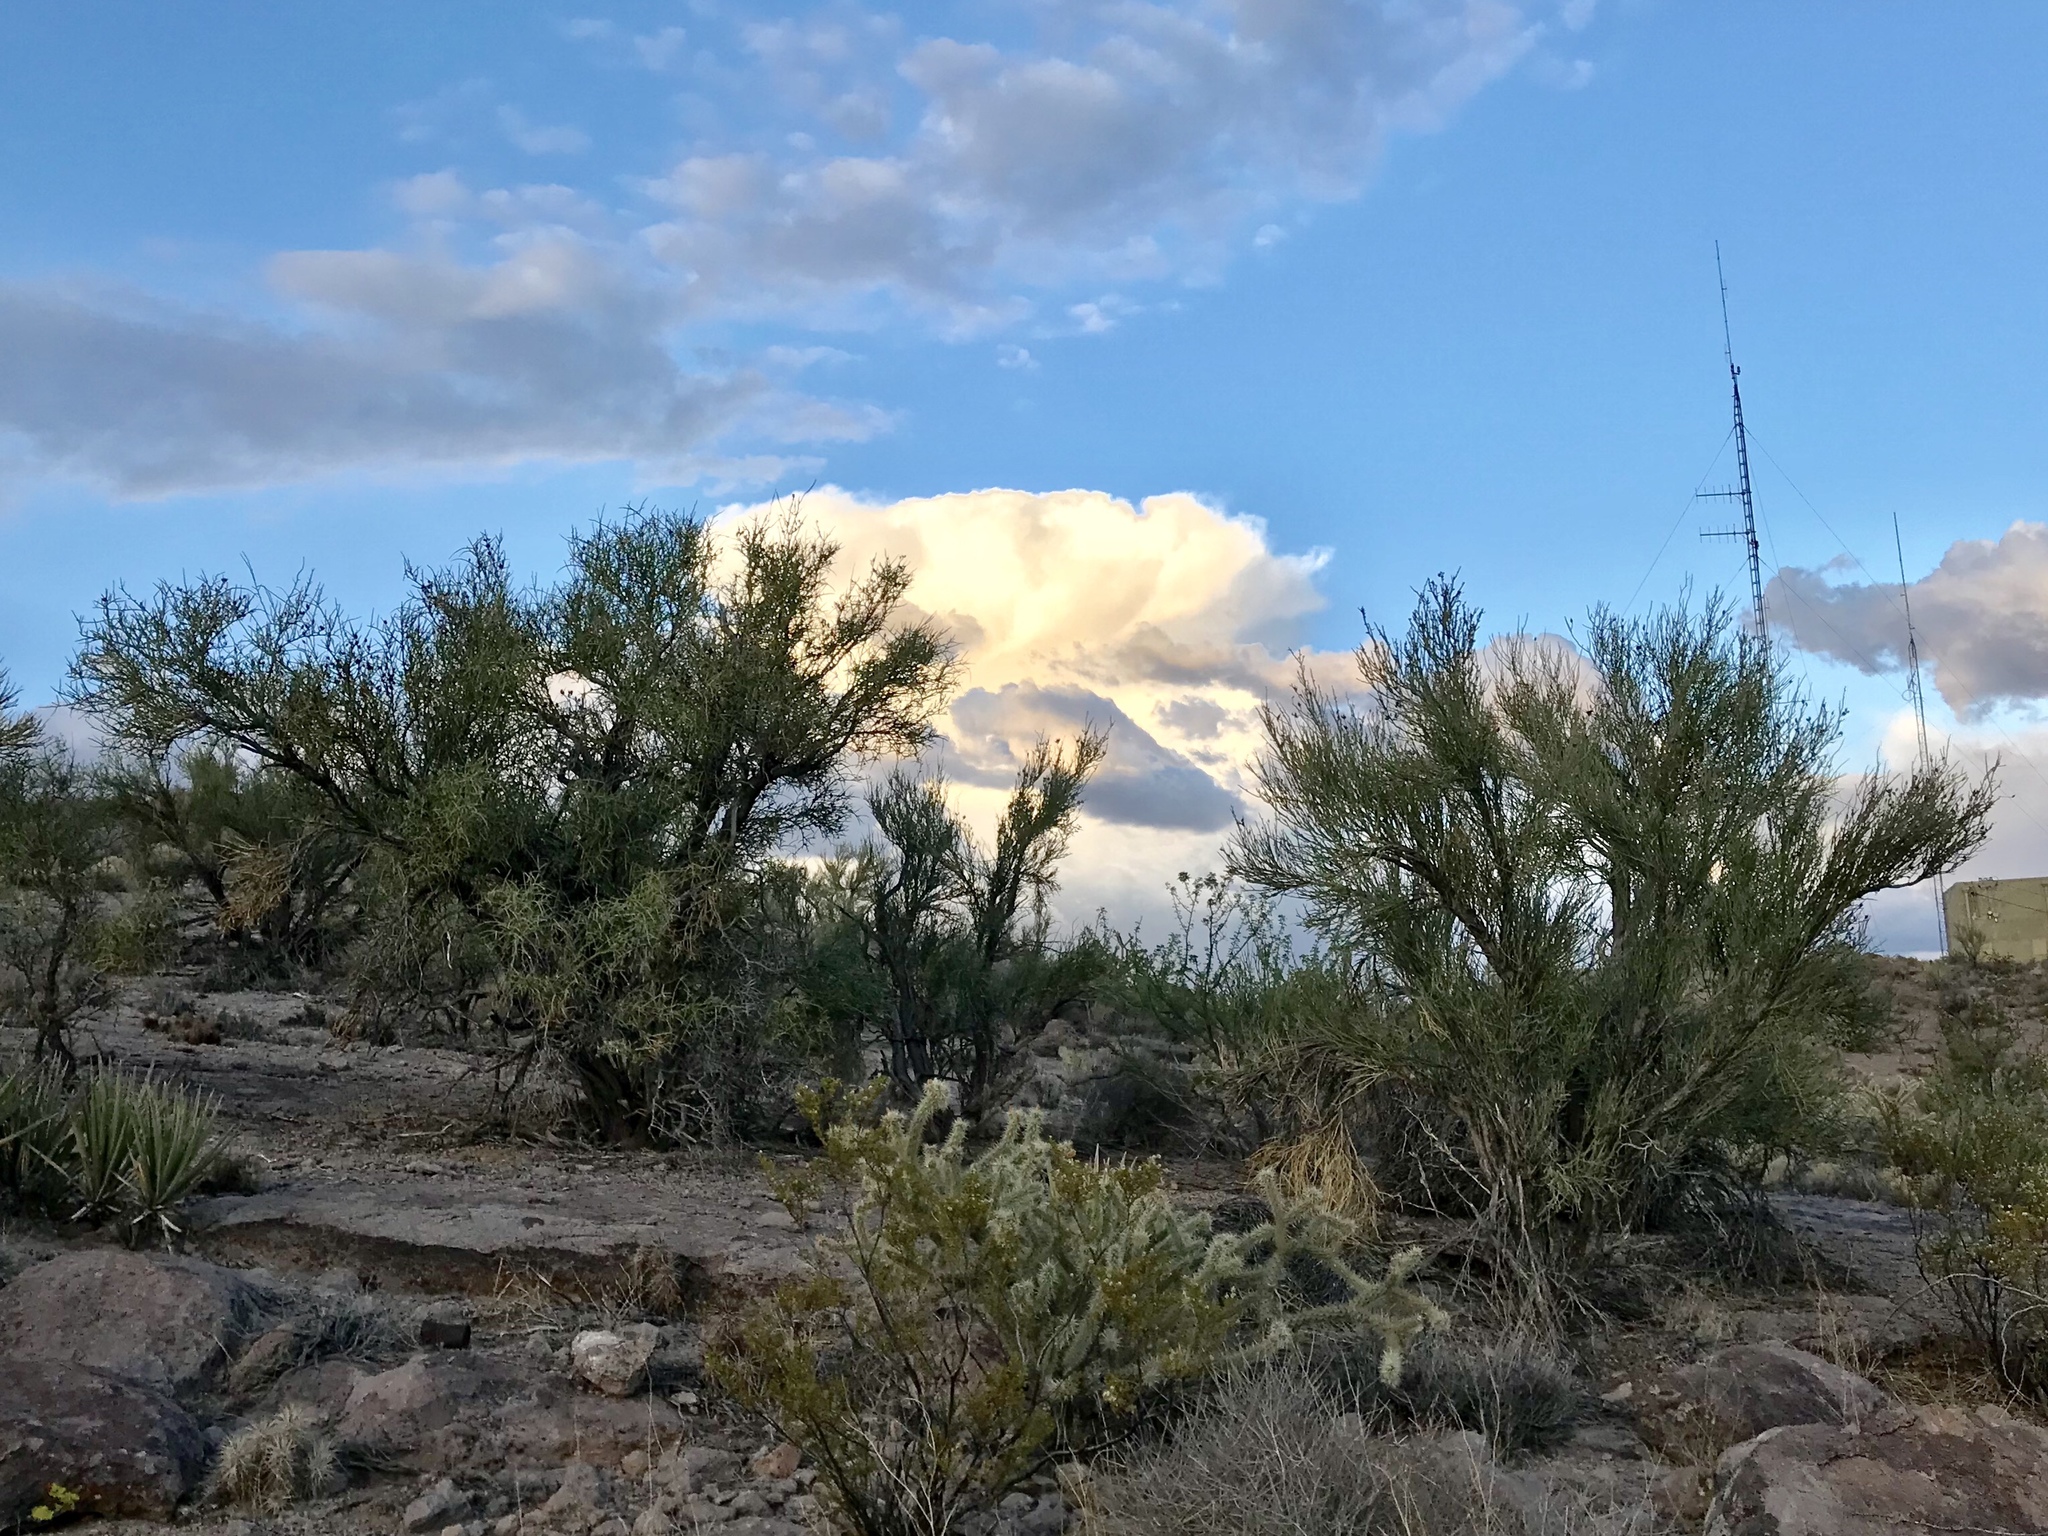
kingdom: Plantae
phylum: Tracheophyta
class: Magnoliopsida
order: Celastrales
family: Celastraceae
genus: Canotia
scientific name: Canotia holacantha
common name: Crucifixion thorns
